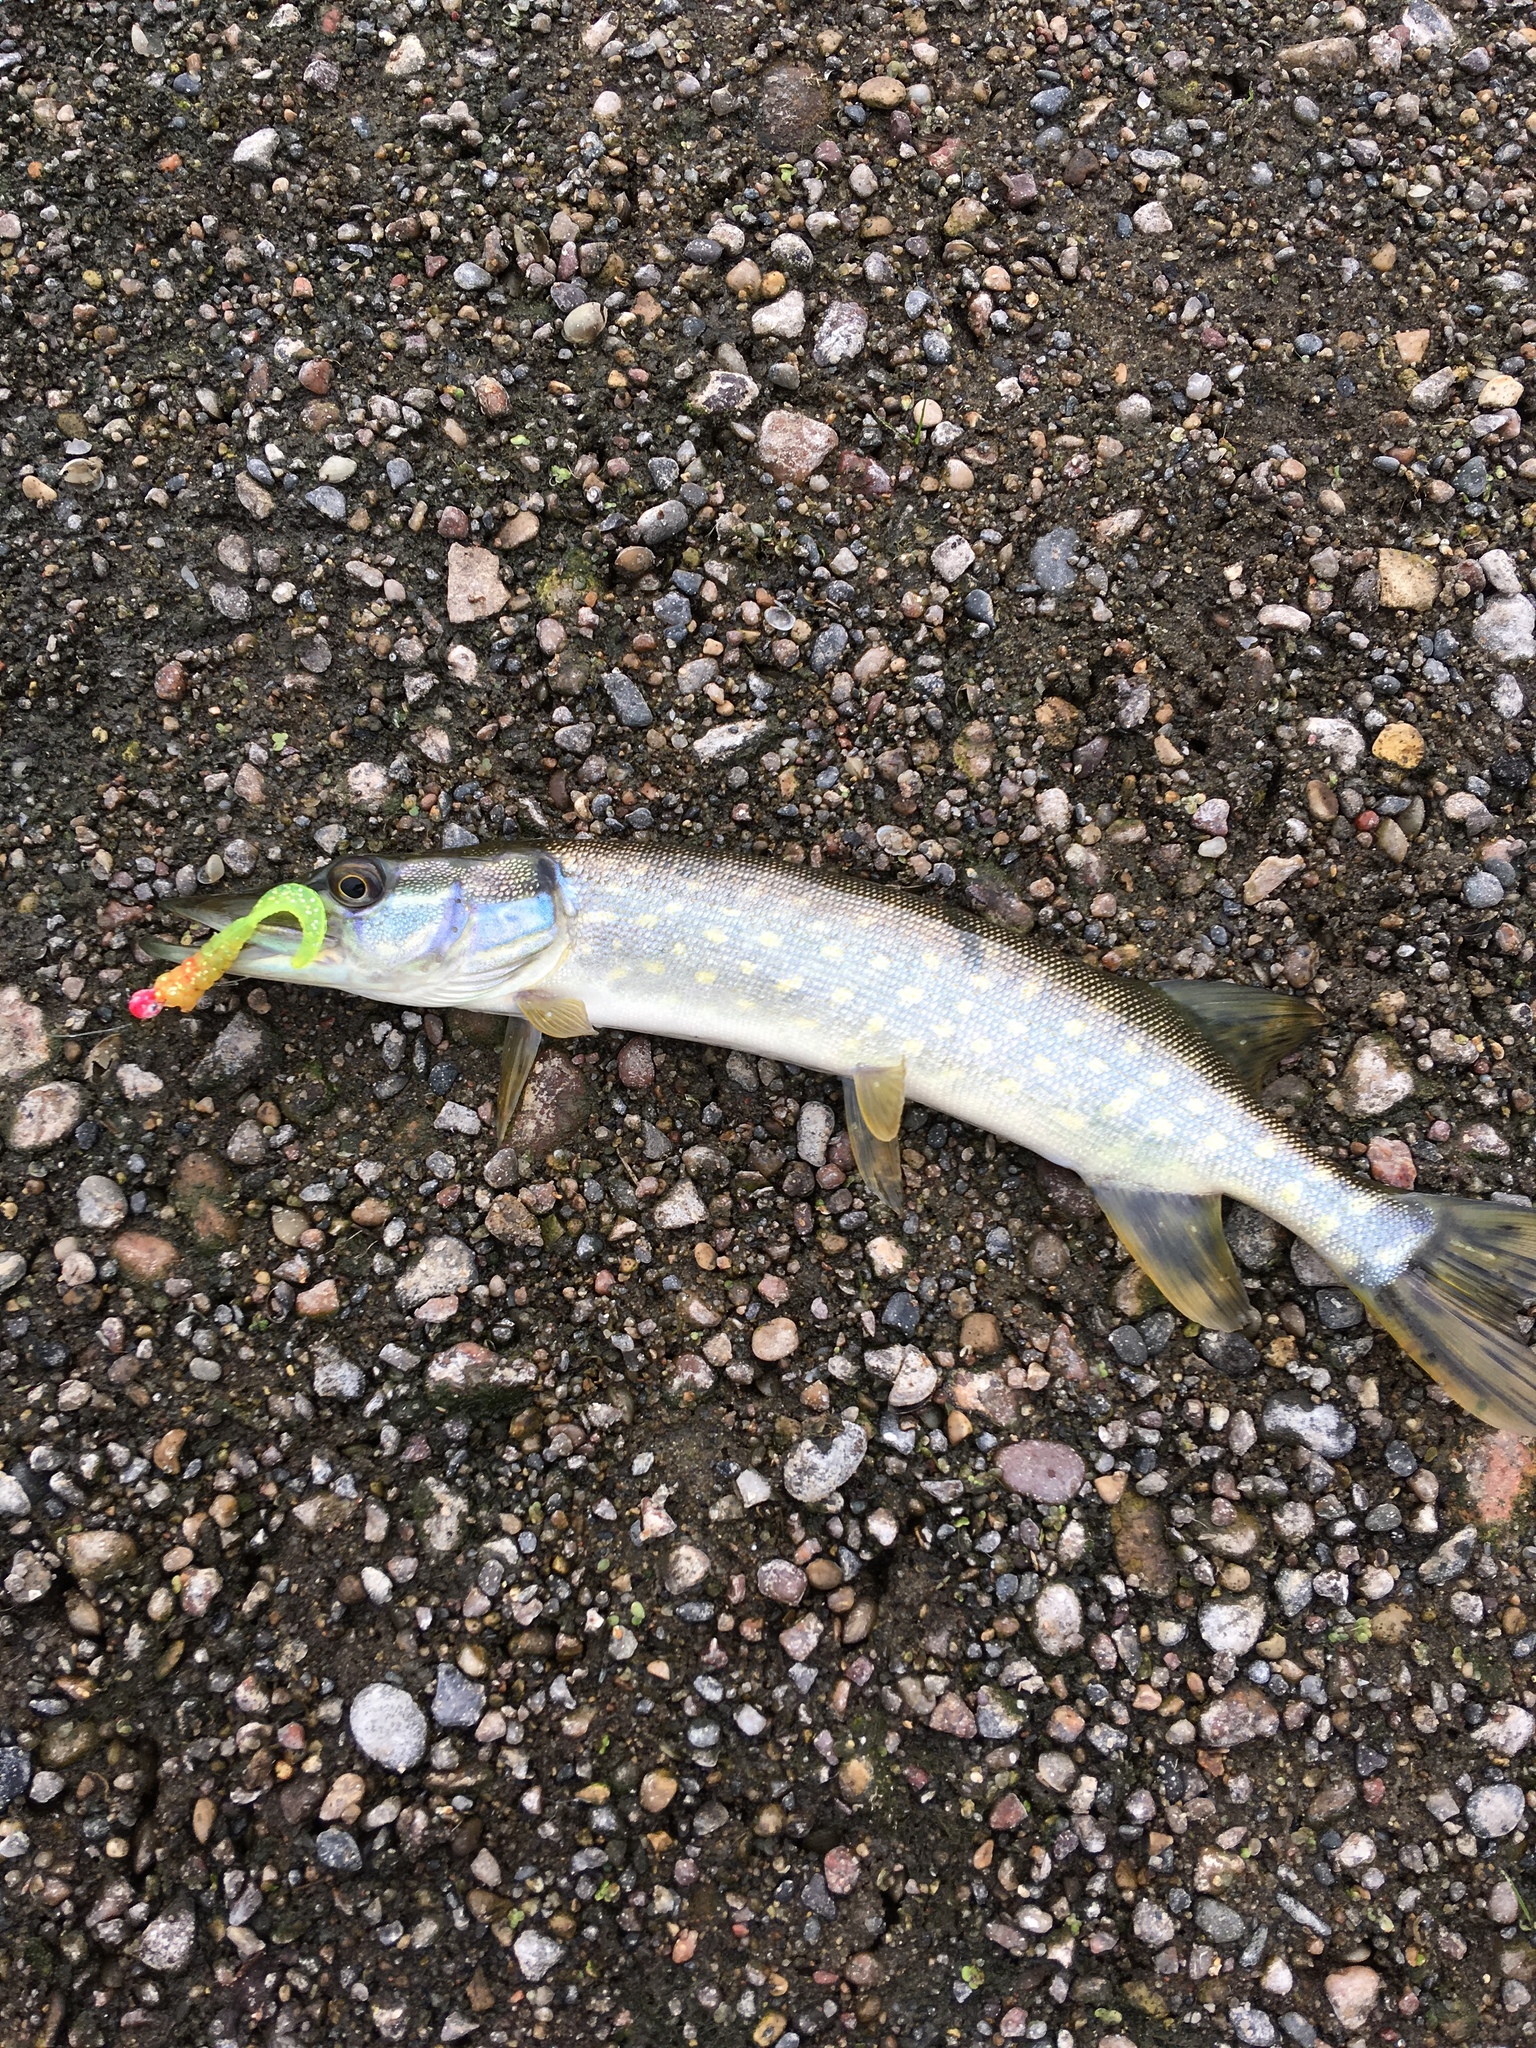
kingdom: Animalia
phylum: Chordata
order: Esociformes
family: Esocidae
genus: Esox
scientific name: Esox lucius
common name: Northern pike
